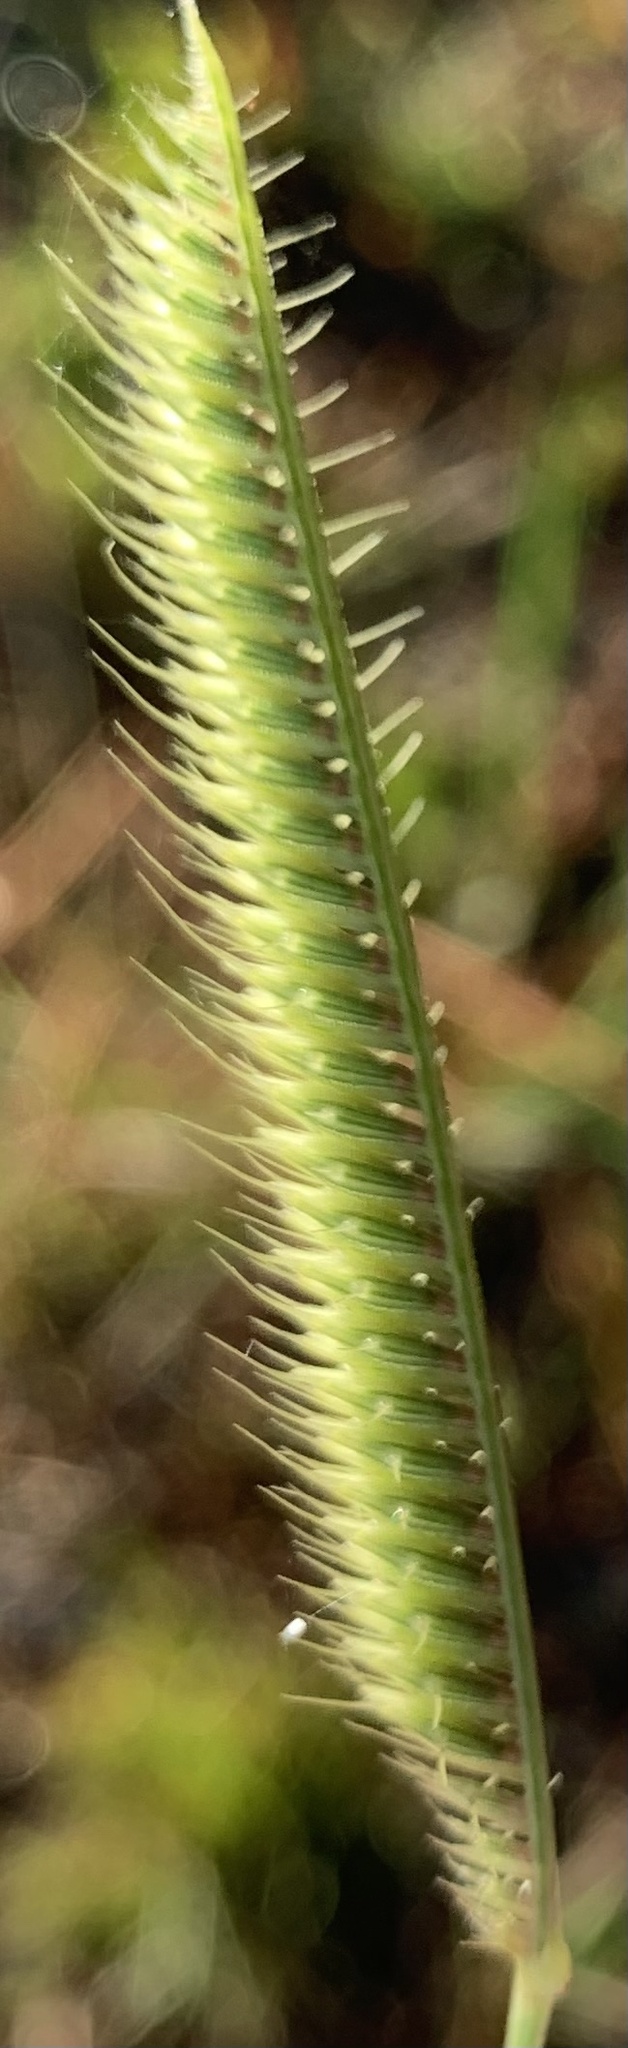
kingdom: Plantae
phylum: Tracheophyta
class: Liliopsida
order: Poales
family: Poaceae
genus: Ctenium
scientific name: Ctenium aromaticum
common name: Toothache grass
